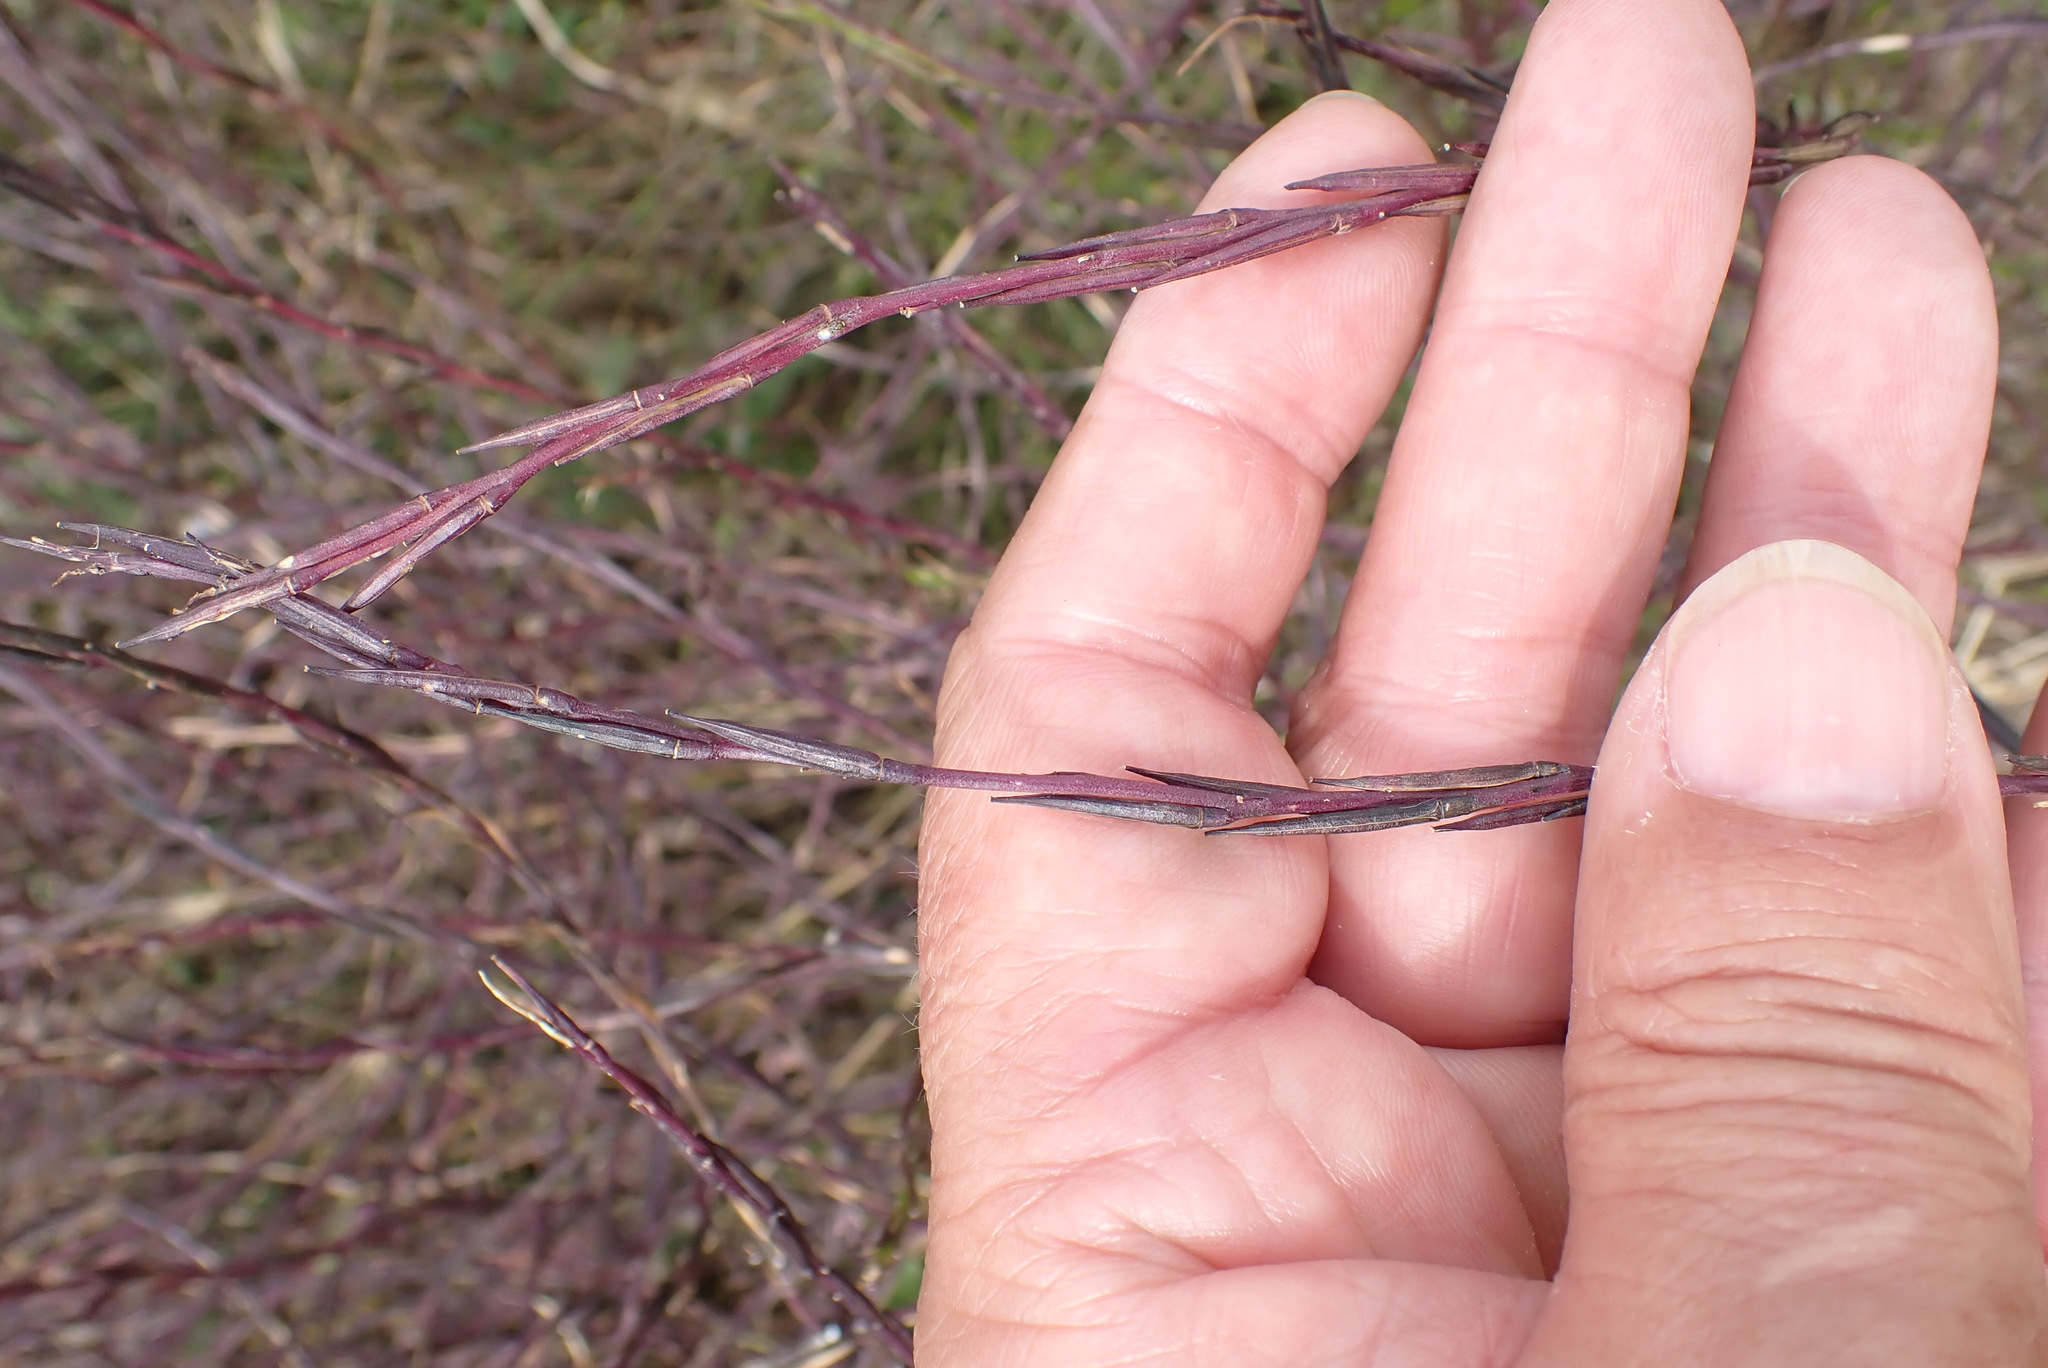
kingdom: Plantae
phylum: Tracheophyta
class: Magnoliopsida
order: Brassicales
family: Brassicaceae
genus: Sisymbrium
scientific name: Sisymbrium officinale
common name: Hedge mustard
